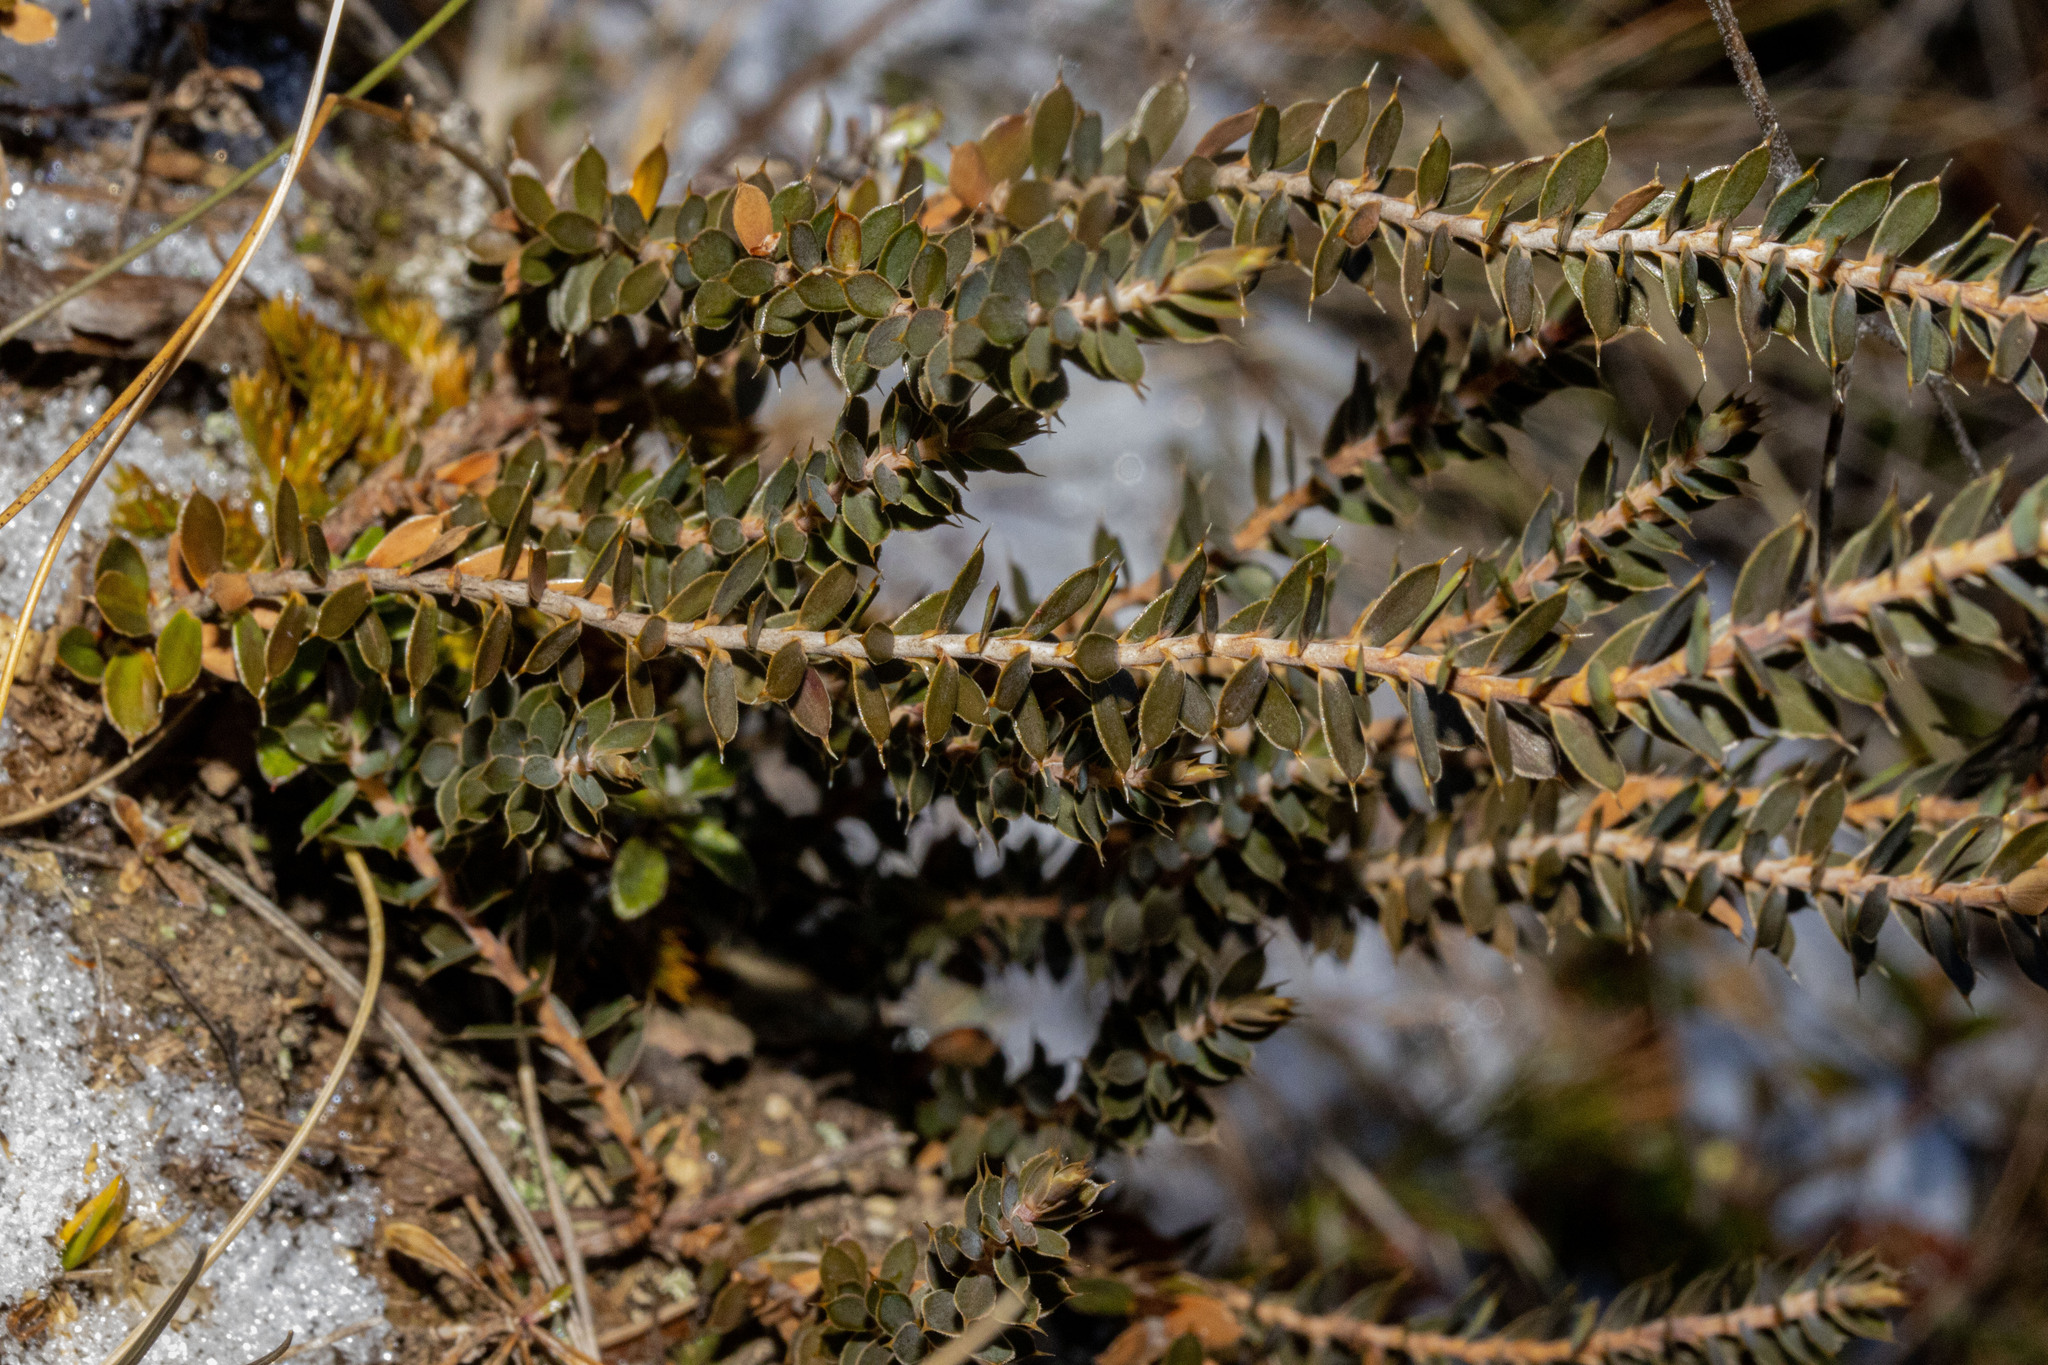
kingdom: Plantae
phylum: Tracheophyta
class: Magnoliopsida
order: Ericales
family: Ericaceae
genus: Styphelia
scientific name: Styphelia nesophila
